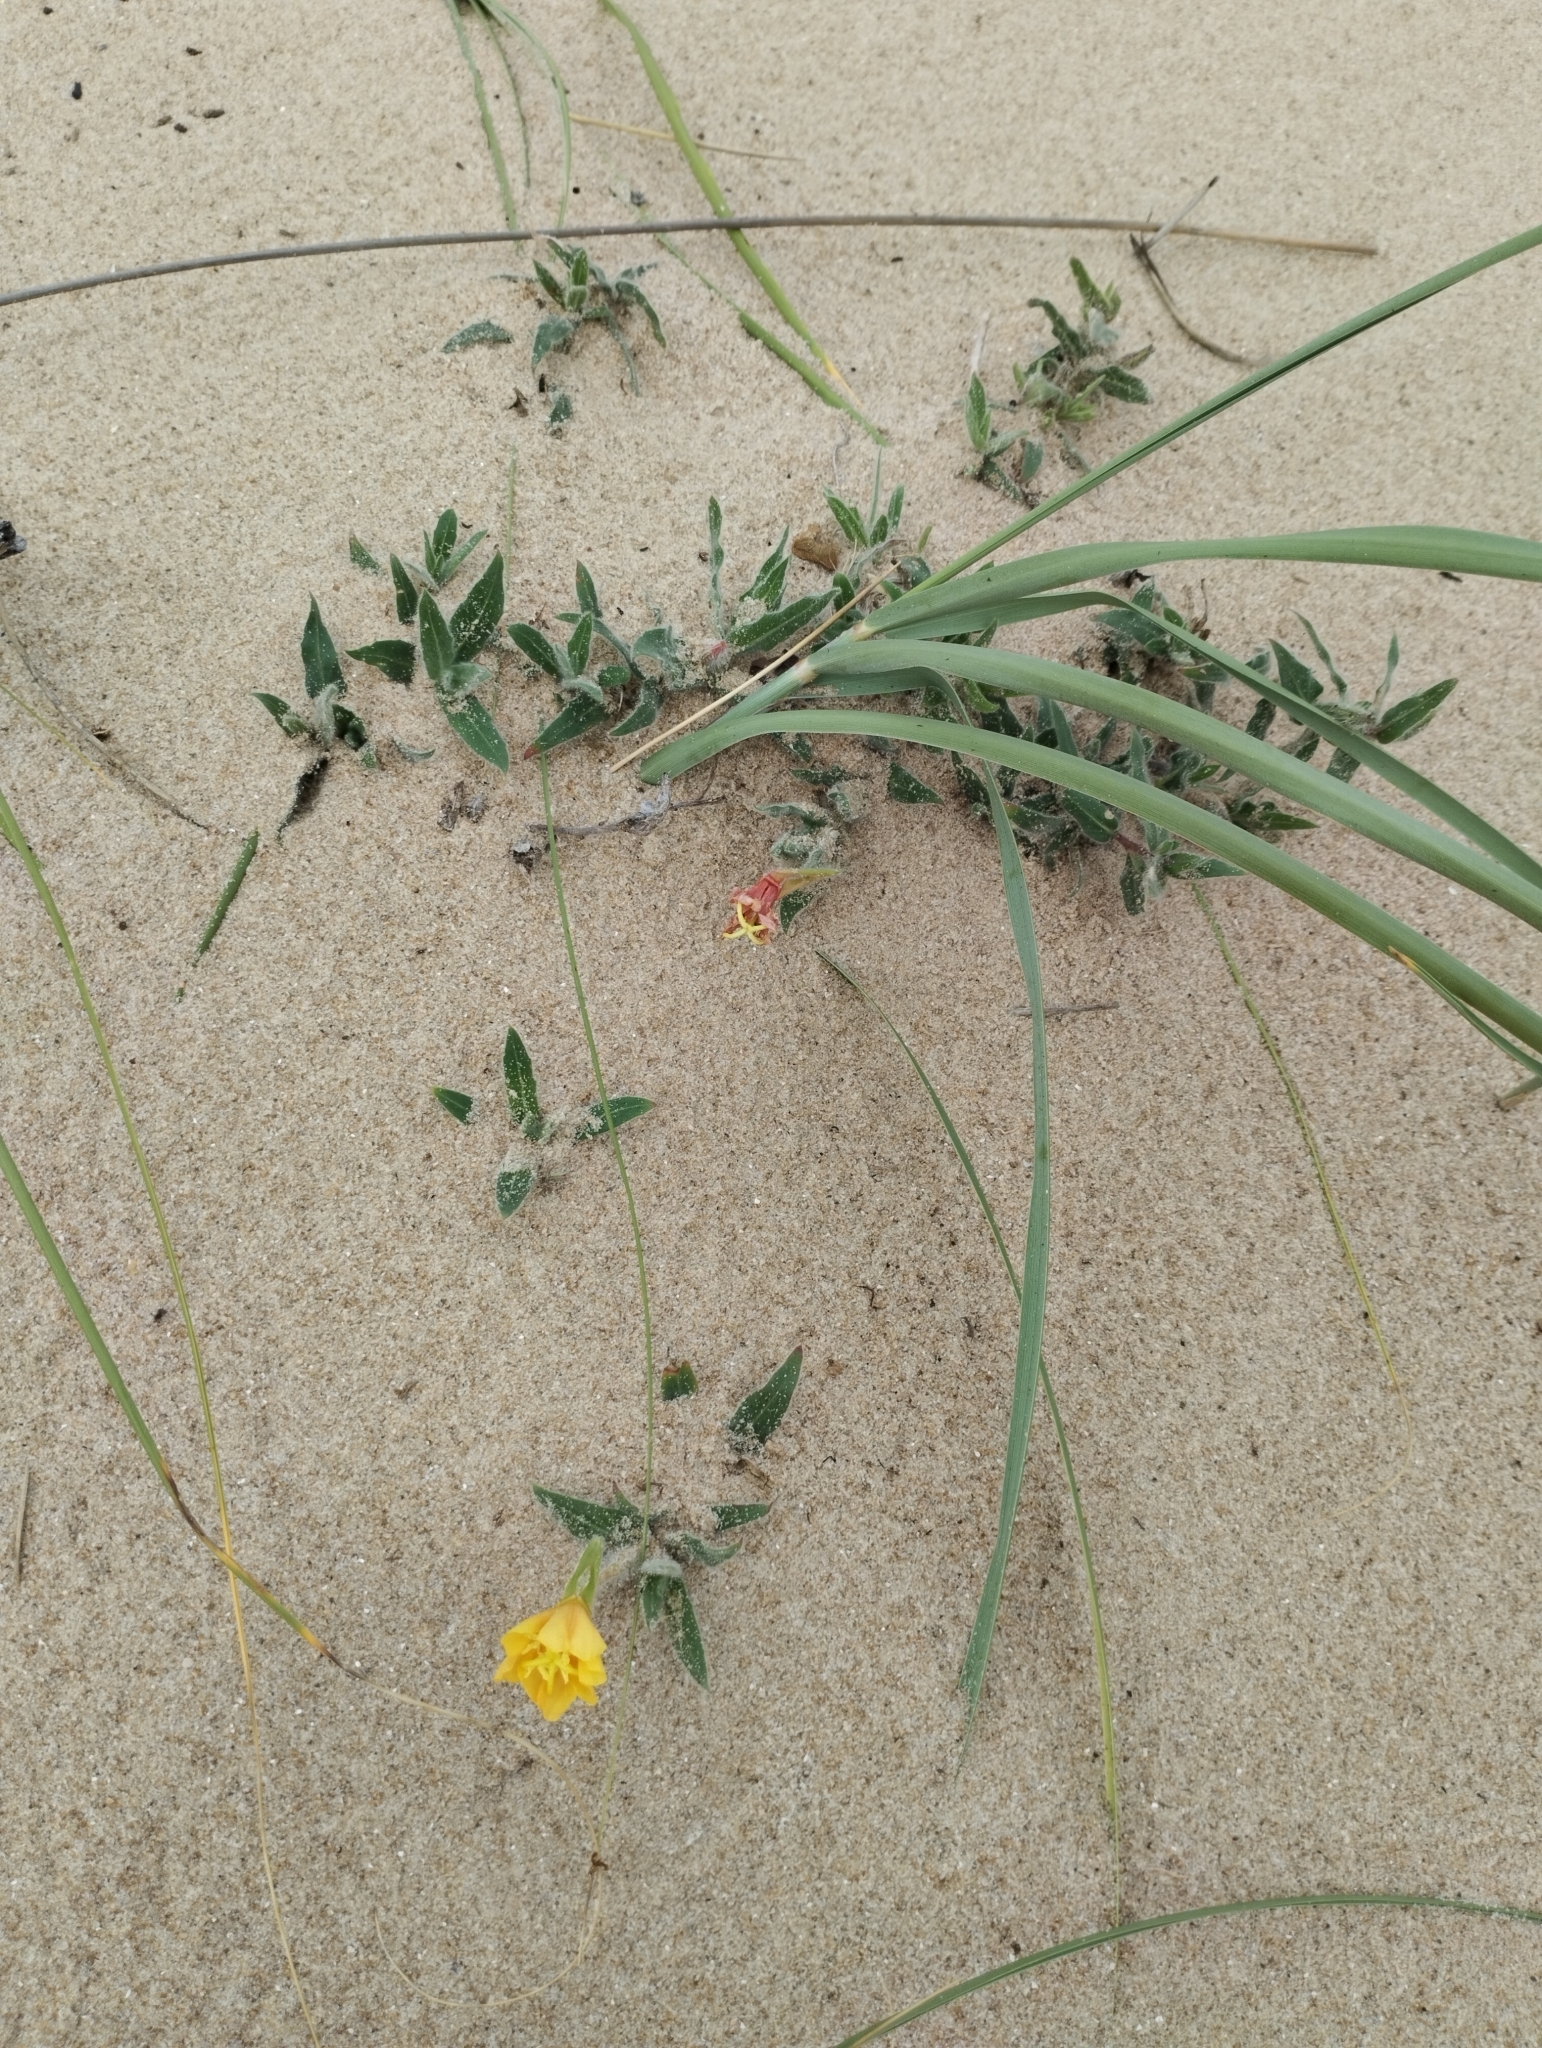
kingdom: Plantae
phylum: Tracheophyta
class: Magnoliopsida
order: Myrtales
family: Onagraceae
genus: Oenothera
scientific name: Oenothera mollissima
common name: Argentine evening primrose
